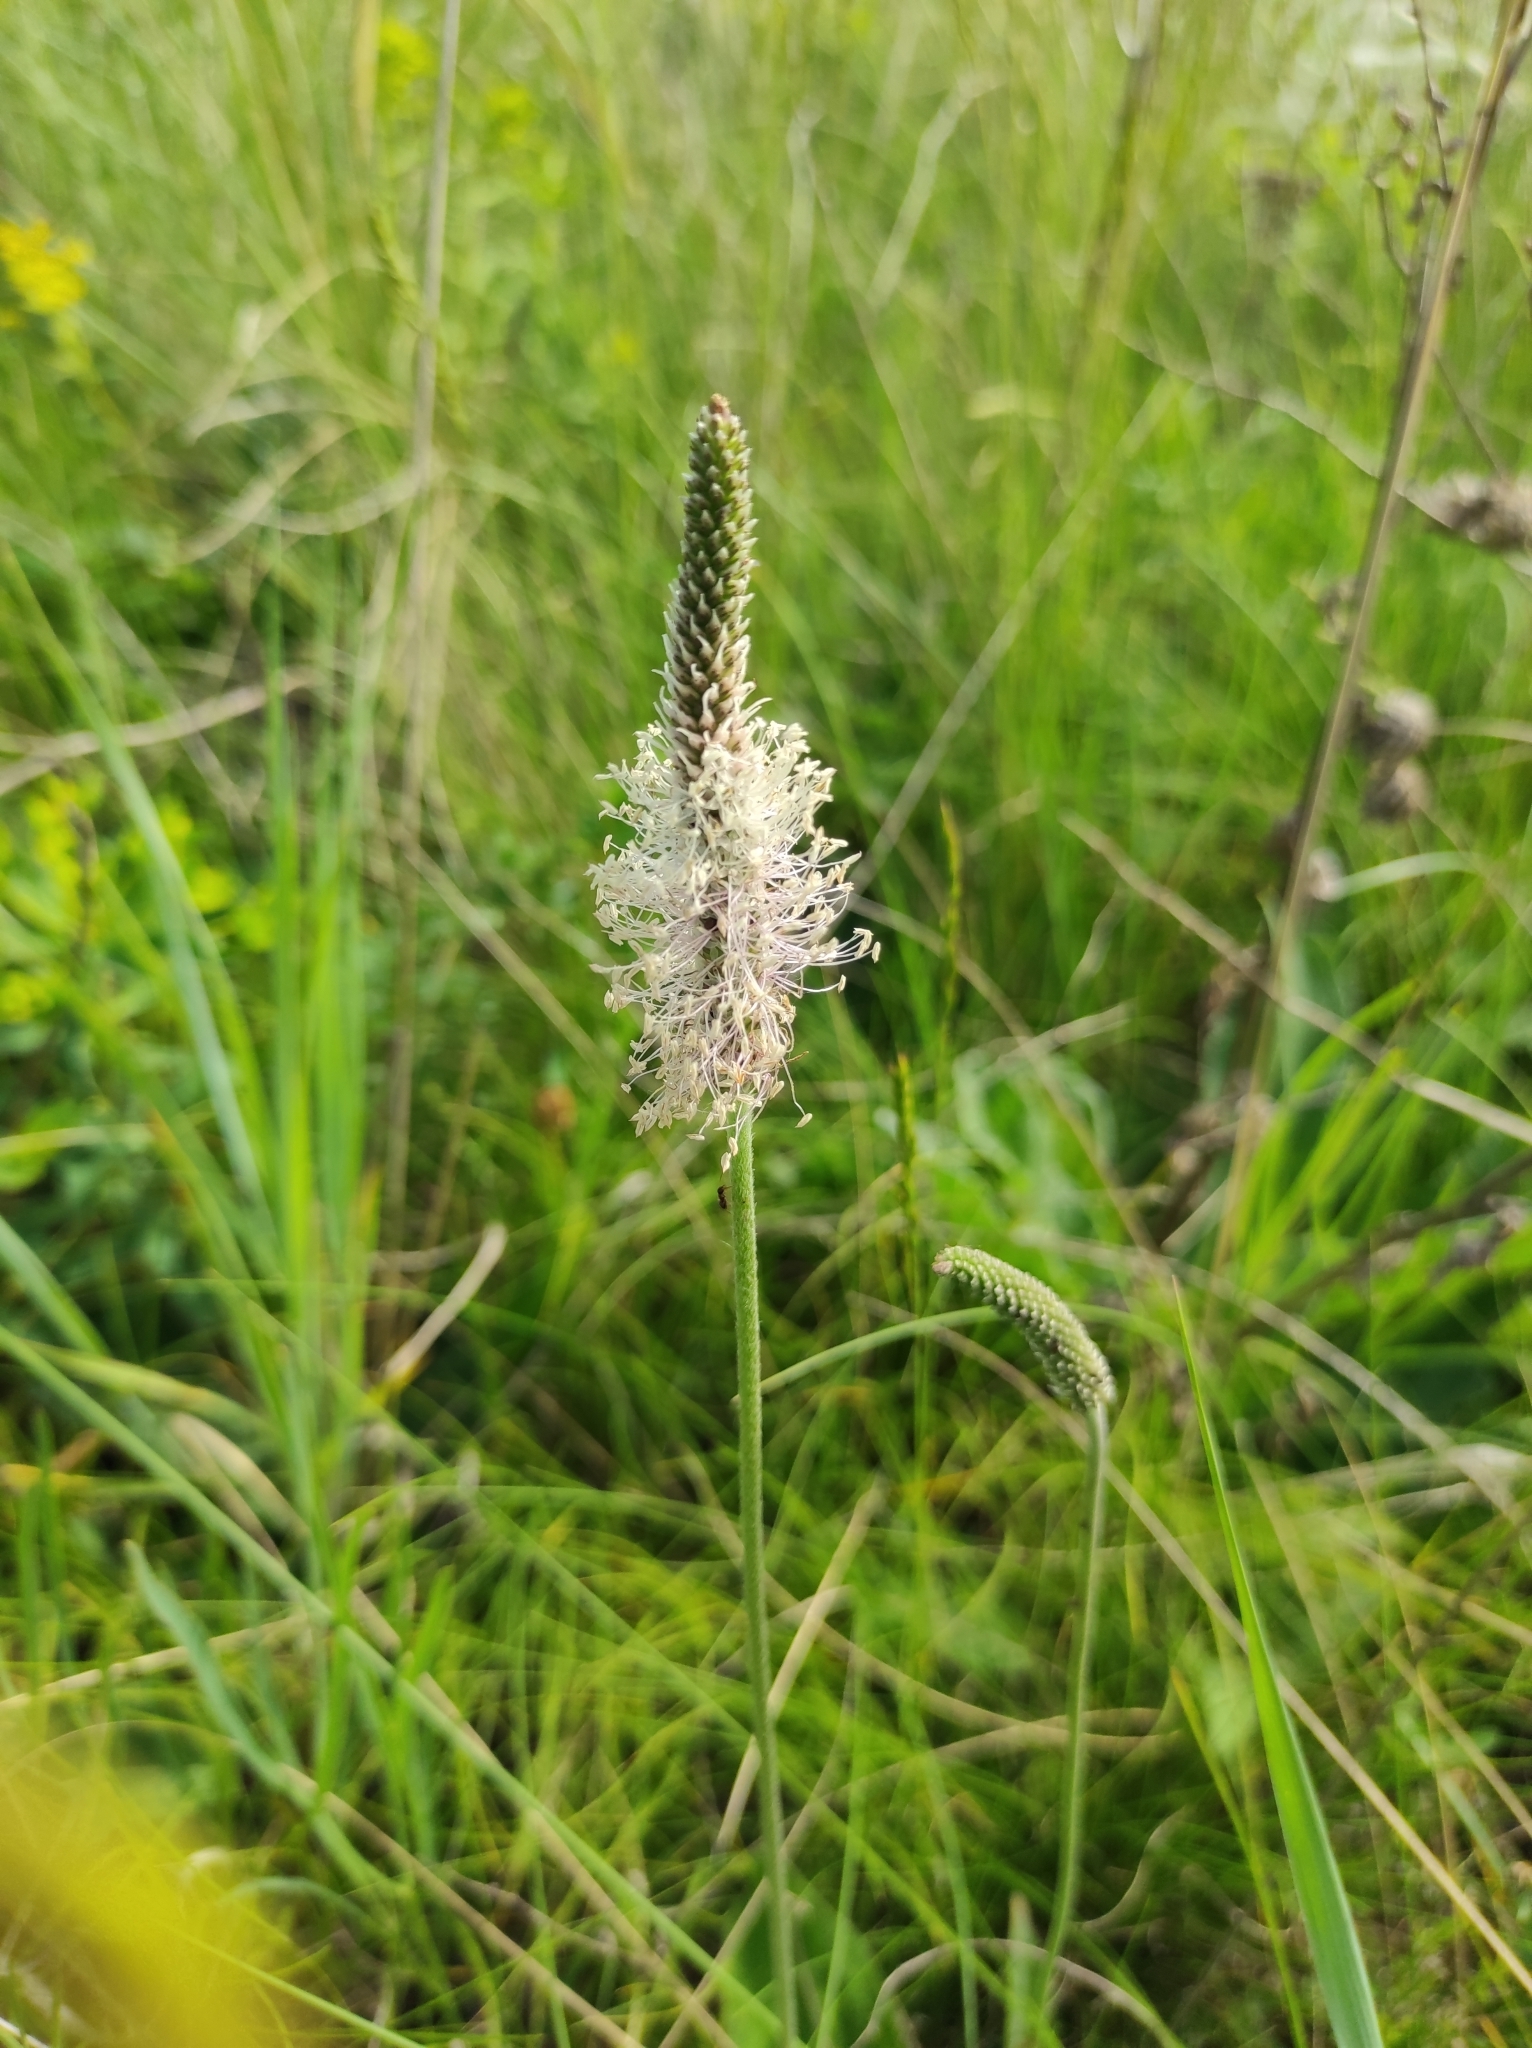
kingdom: Plantae
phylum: Tracheophyta
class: Magnoliopsida
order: Lamiales
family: Plantaginaceae
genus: Plantago
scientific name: Plantago media
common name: Hoary plantain
